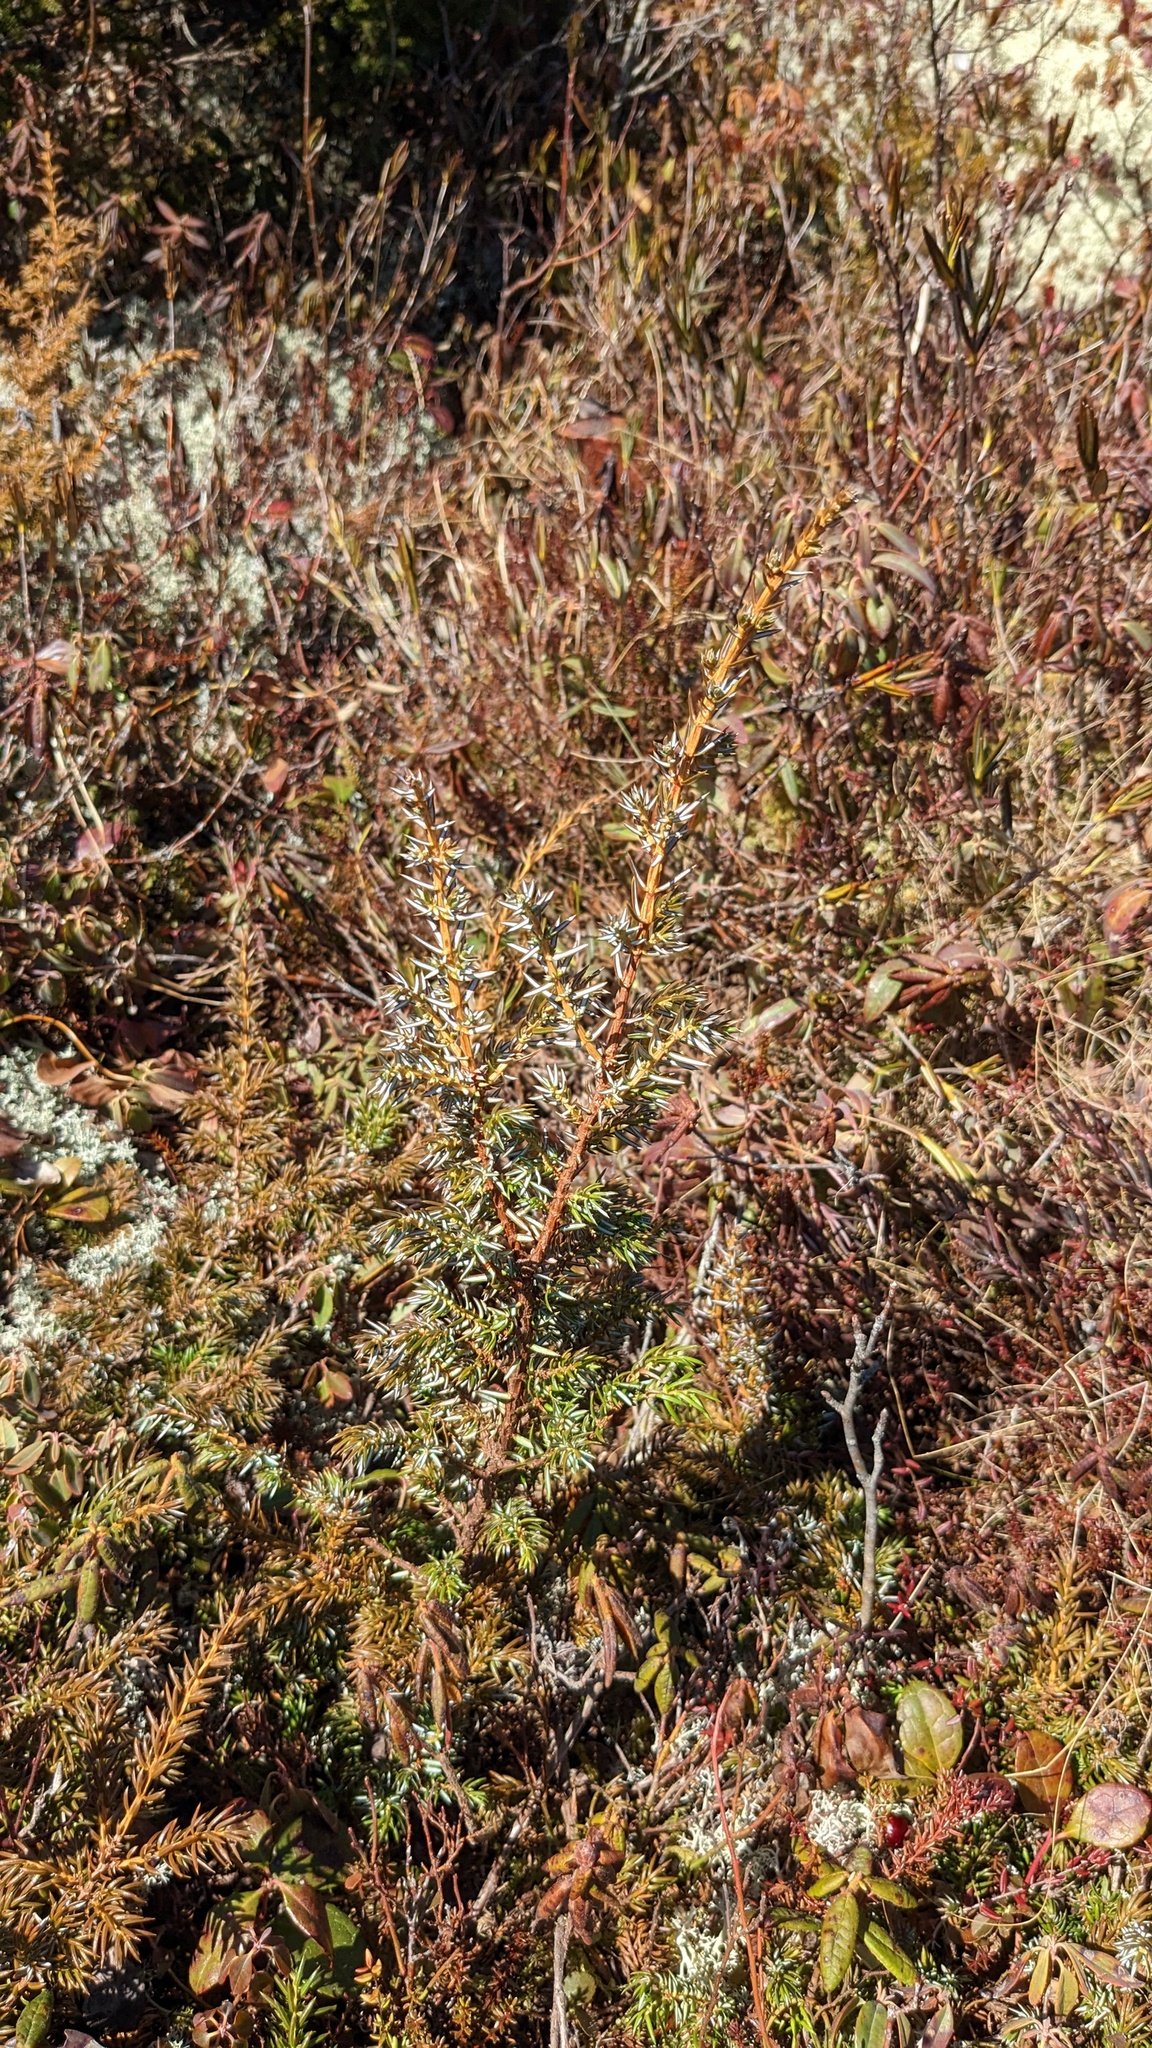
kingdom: Plantae
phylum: Tracheophyta
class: Pinopsida
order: Pinales
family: Cupressaceae
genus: Juniperus
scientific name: Juniperus communis
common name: Common juniper
